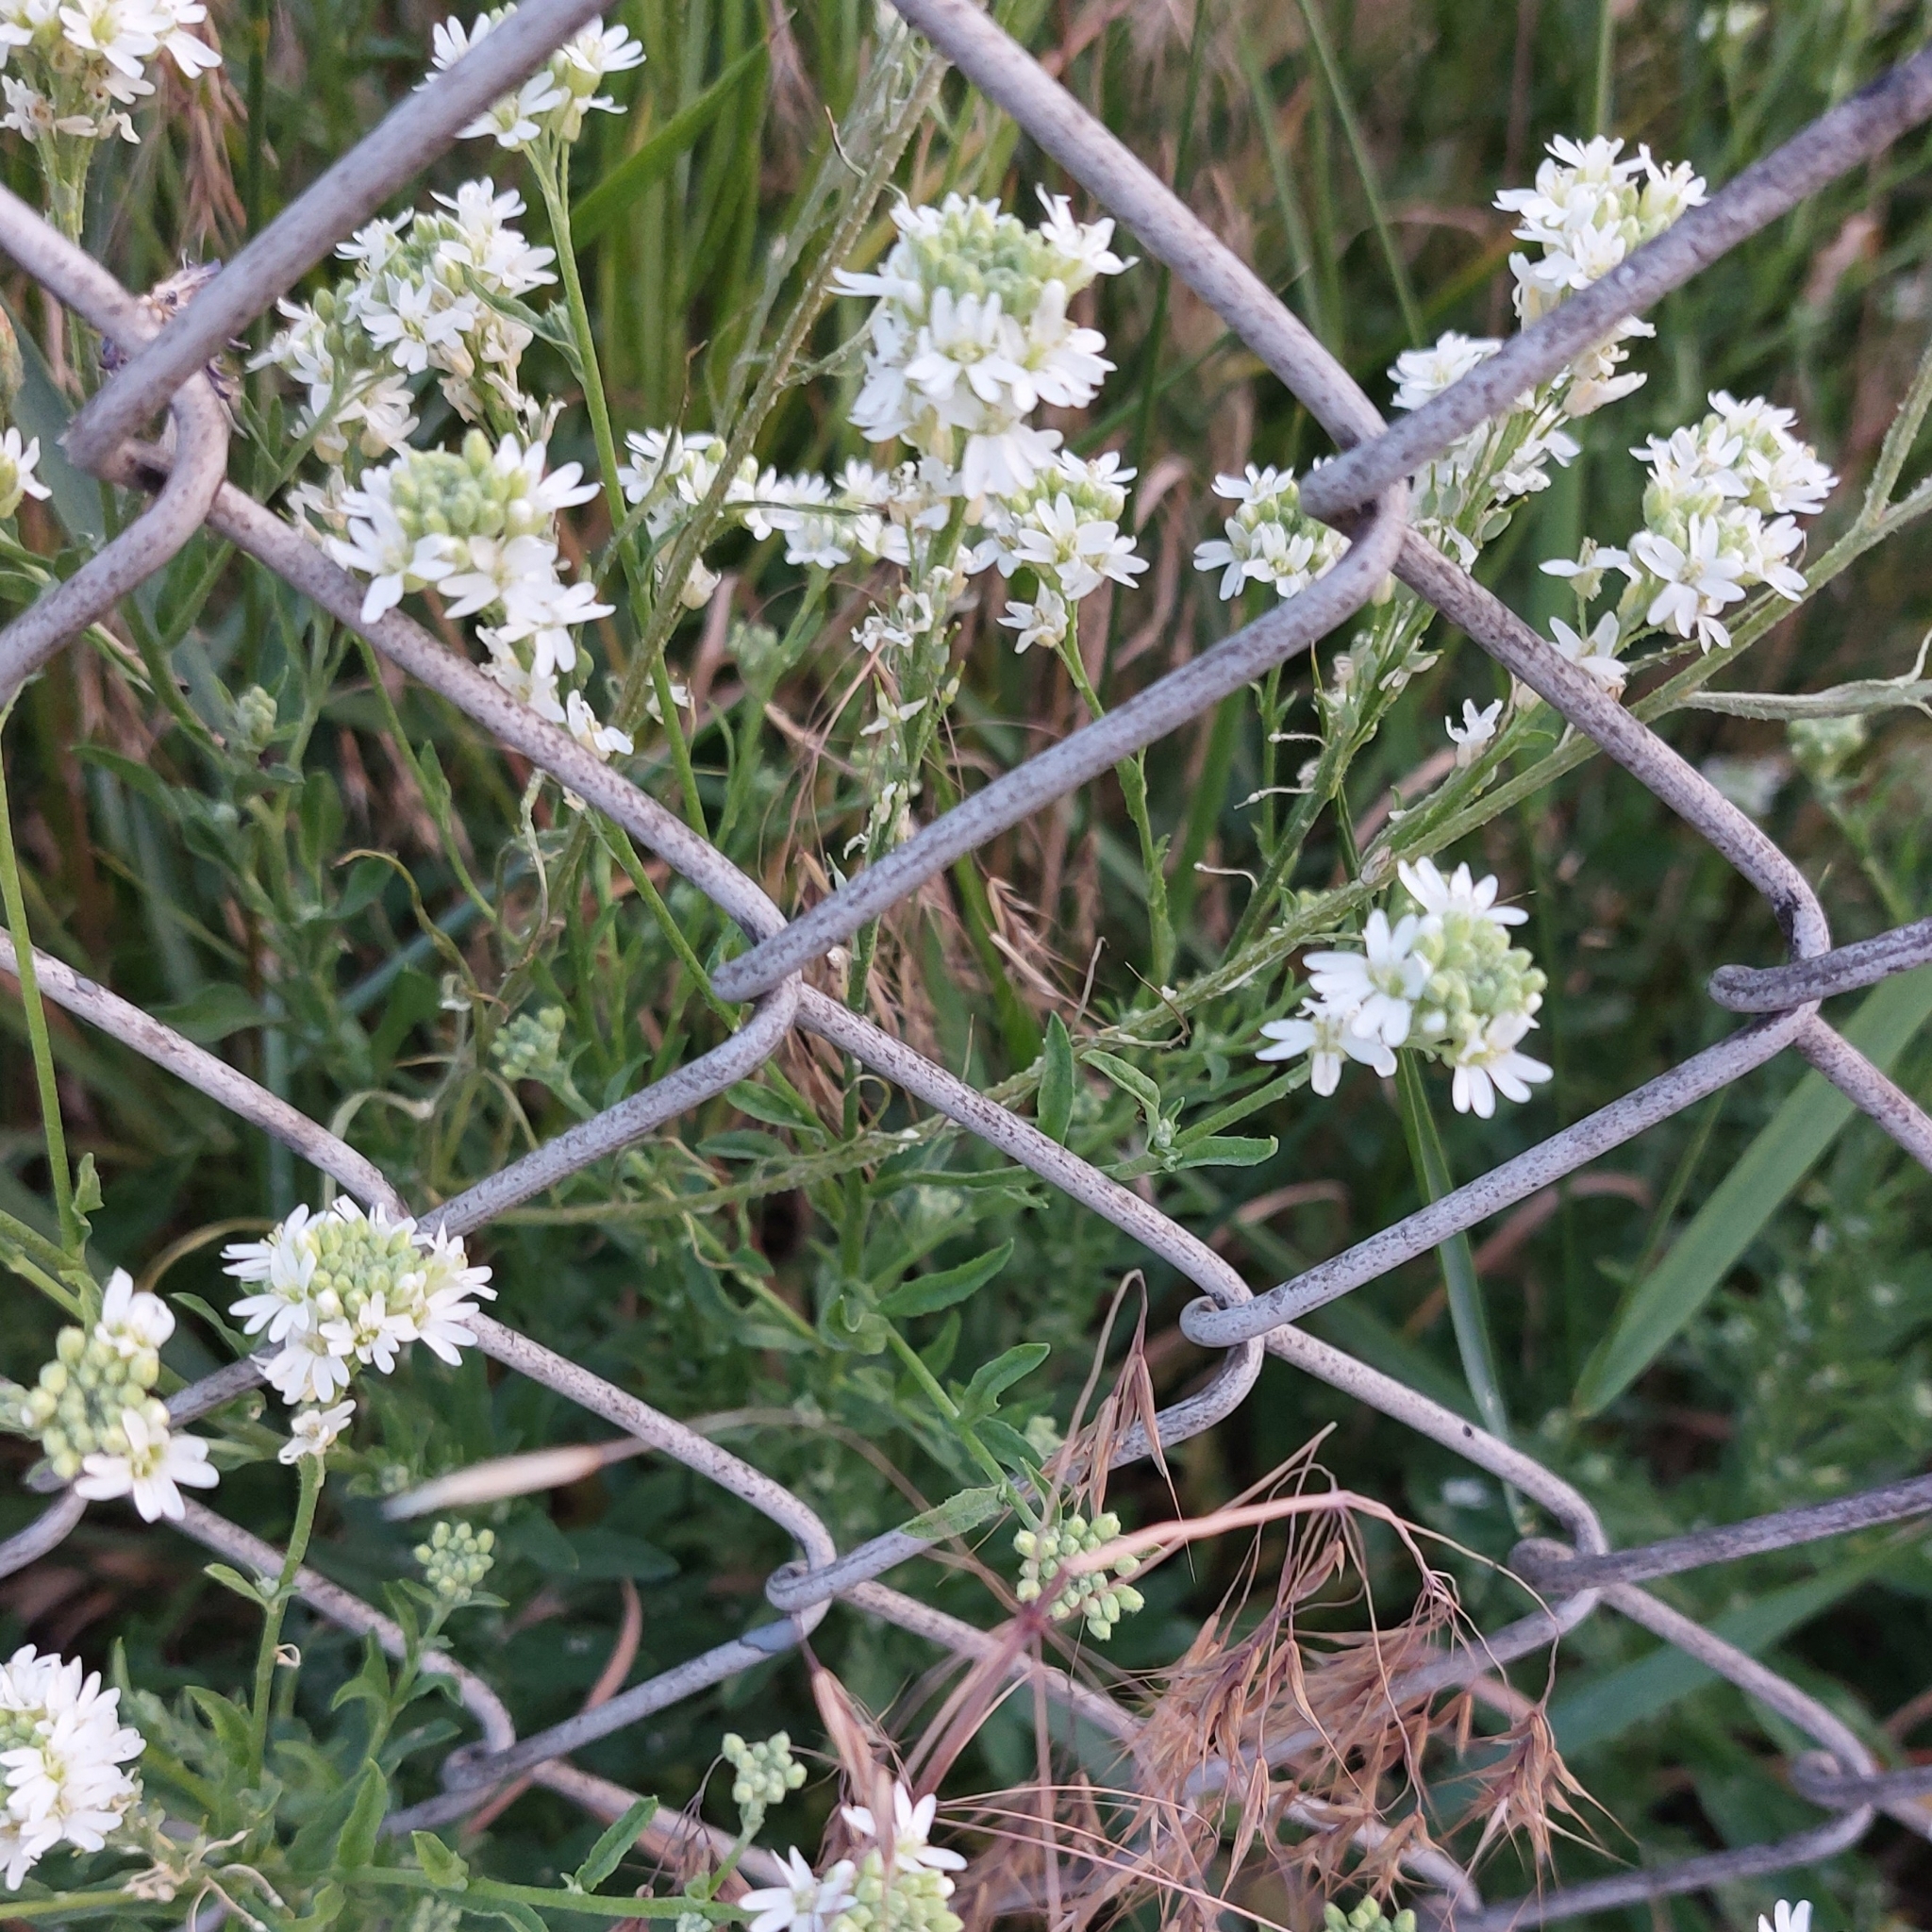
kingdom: Plantae
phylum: Tracheophyta
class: Magnoliopsida
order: Brassicales
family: Brassicaceae
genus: Berteroa
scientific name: Berteroa incana
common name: Hoary alison
